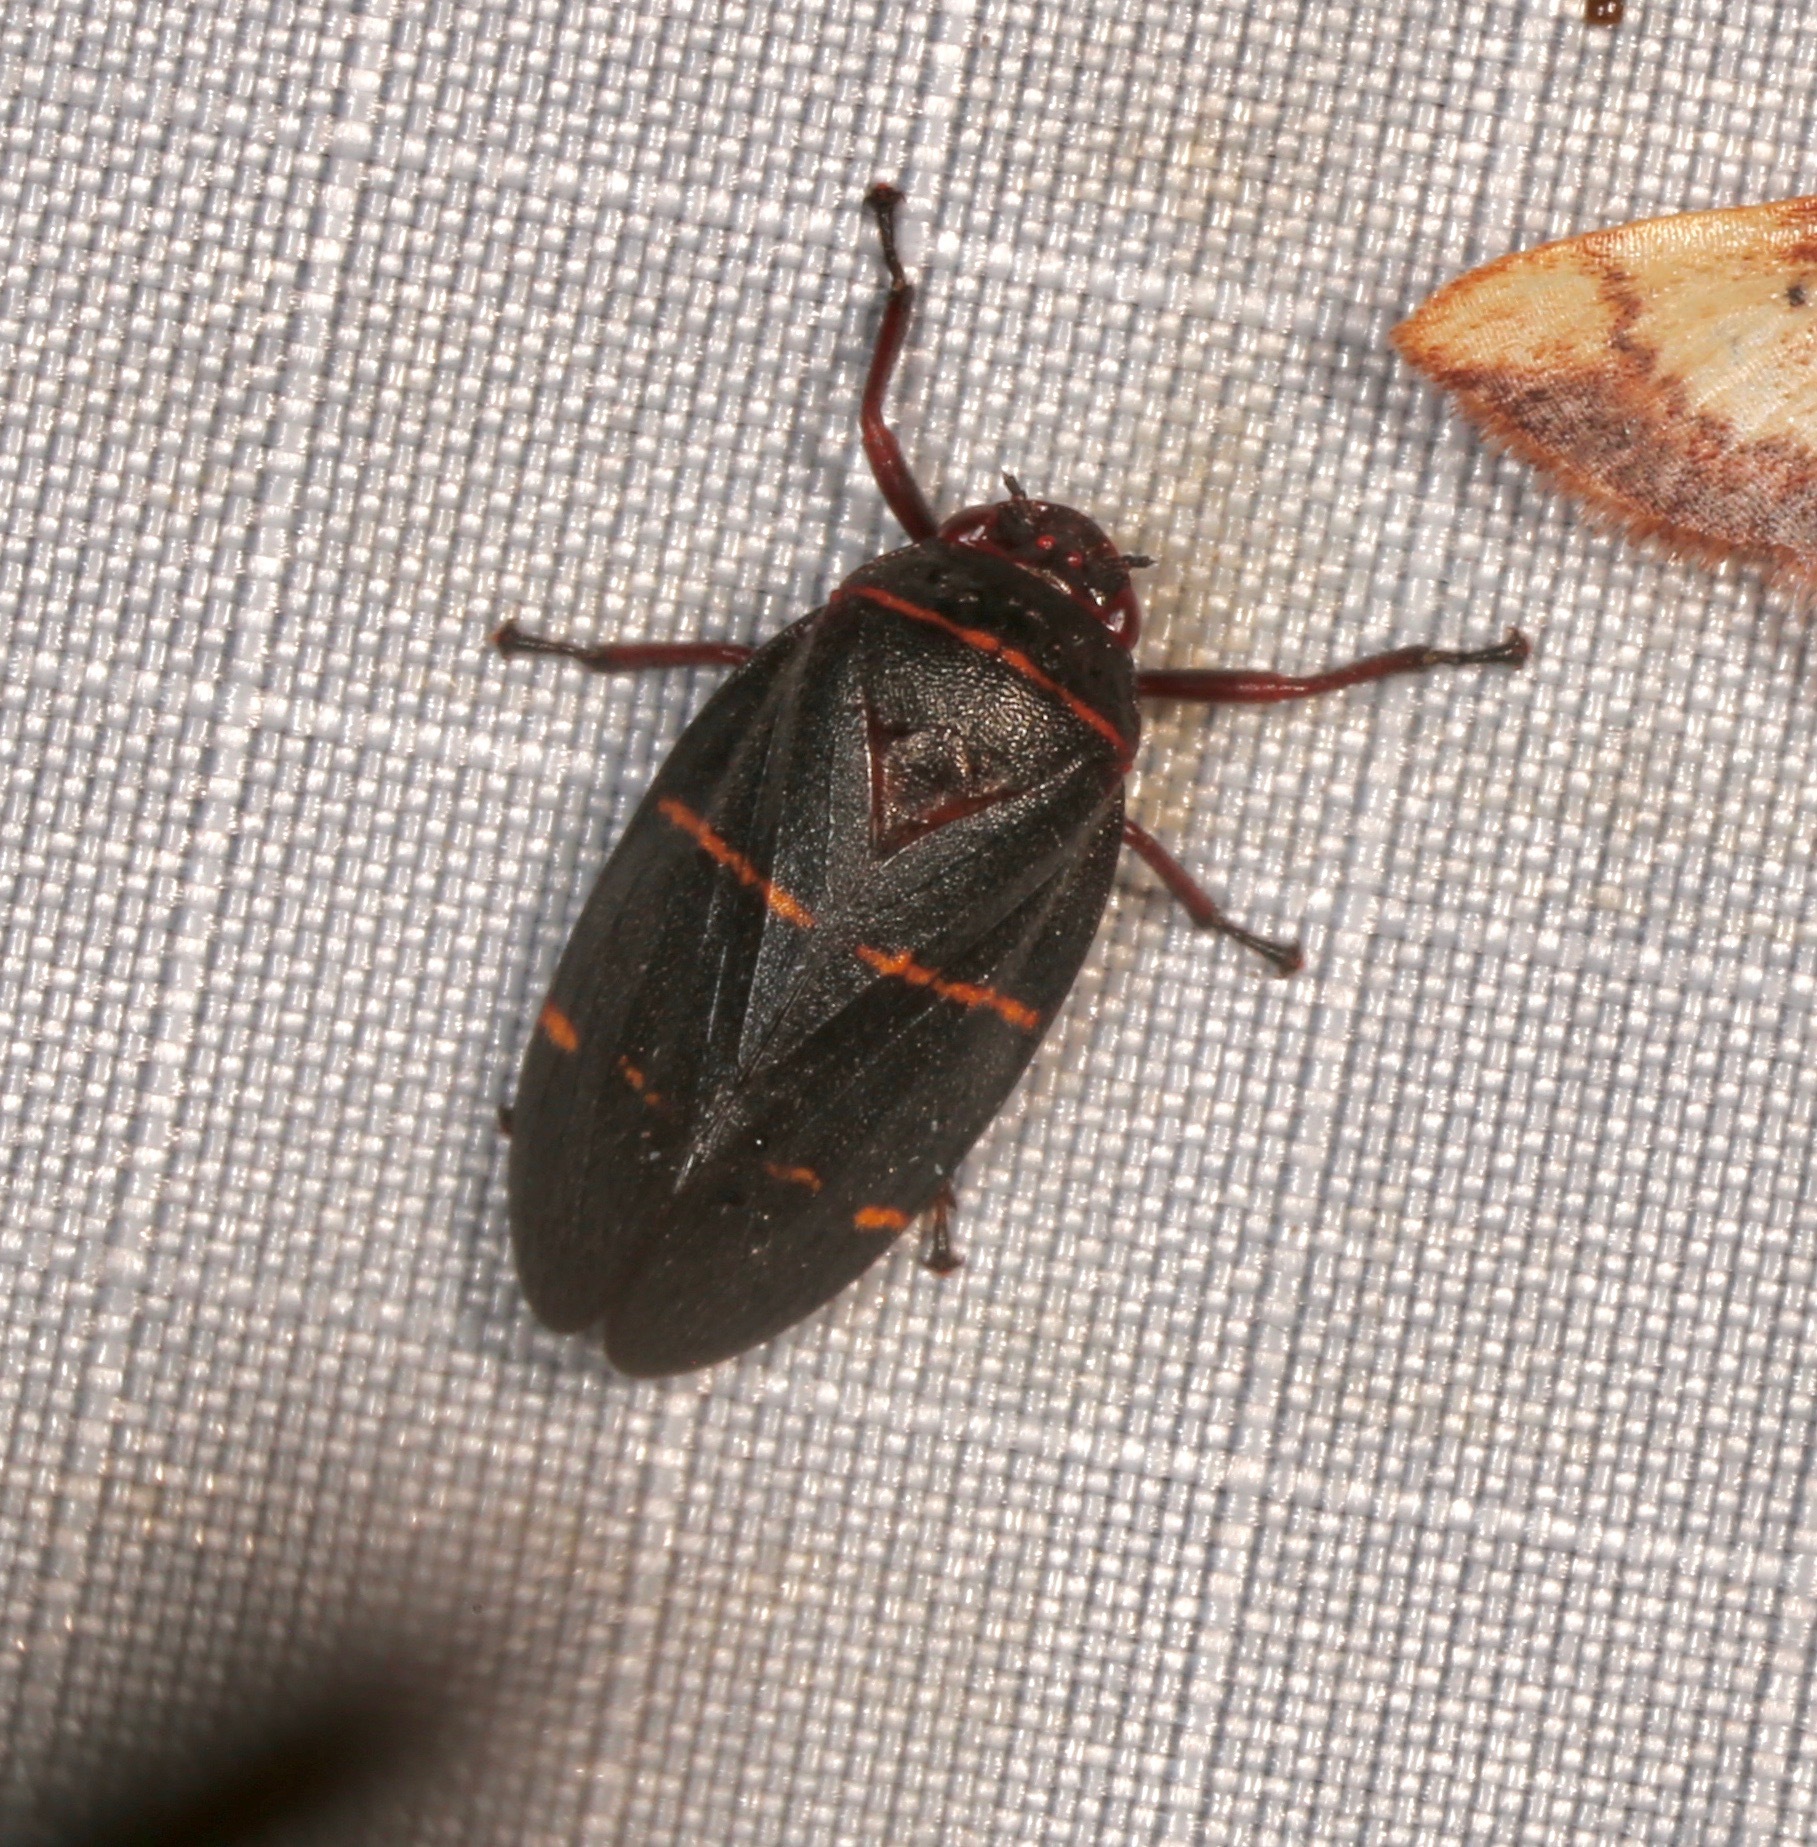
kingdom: Animalia
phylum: Arthropoda
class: Insecta
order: Hemiptera
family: Cercopidae
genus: Prosapia
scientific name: Prosapia bicincta
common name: Twolined spittlebug
